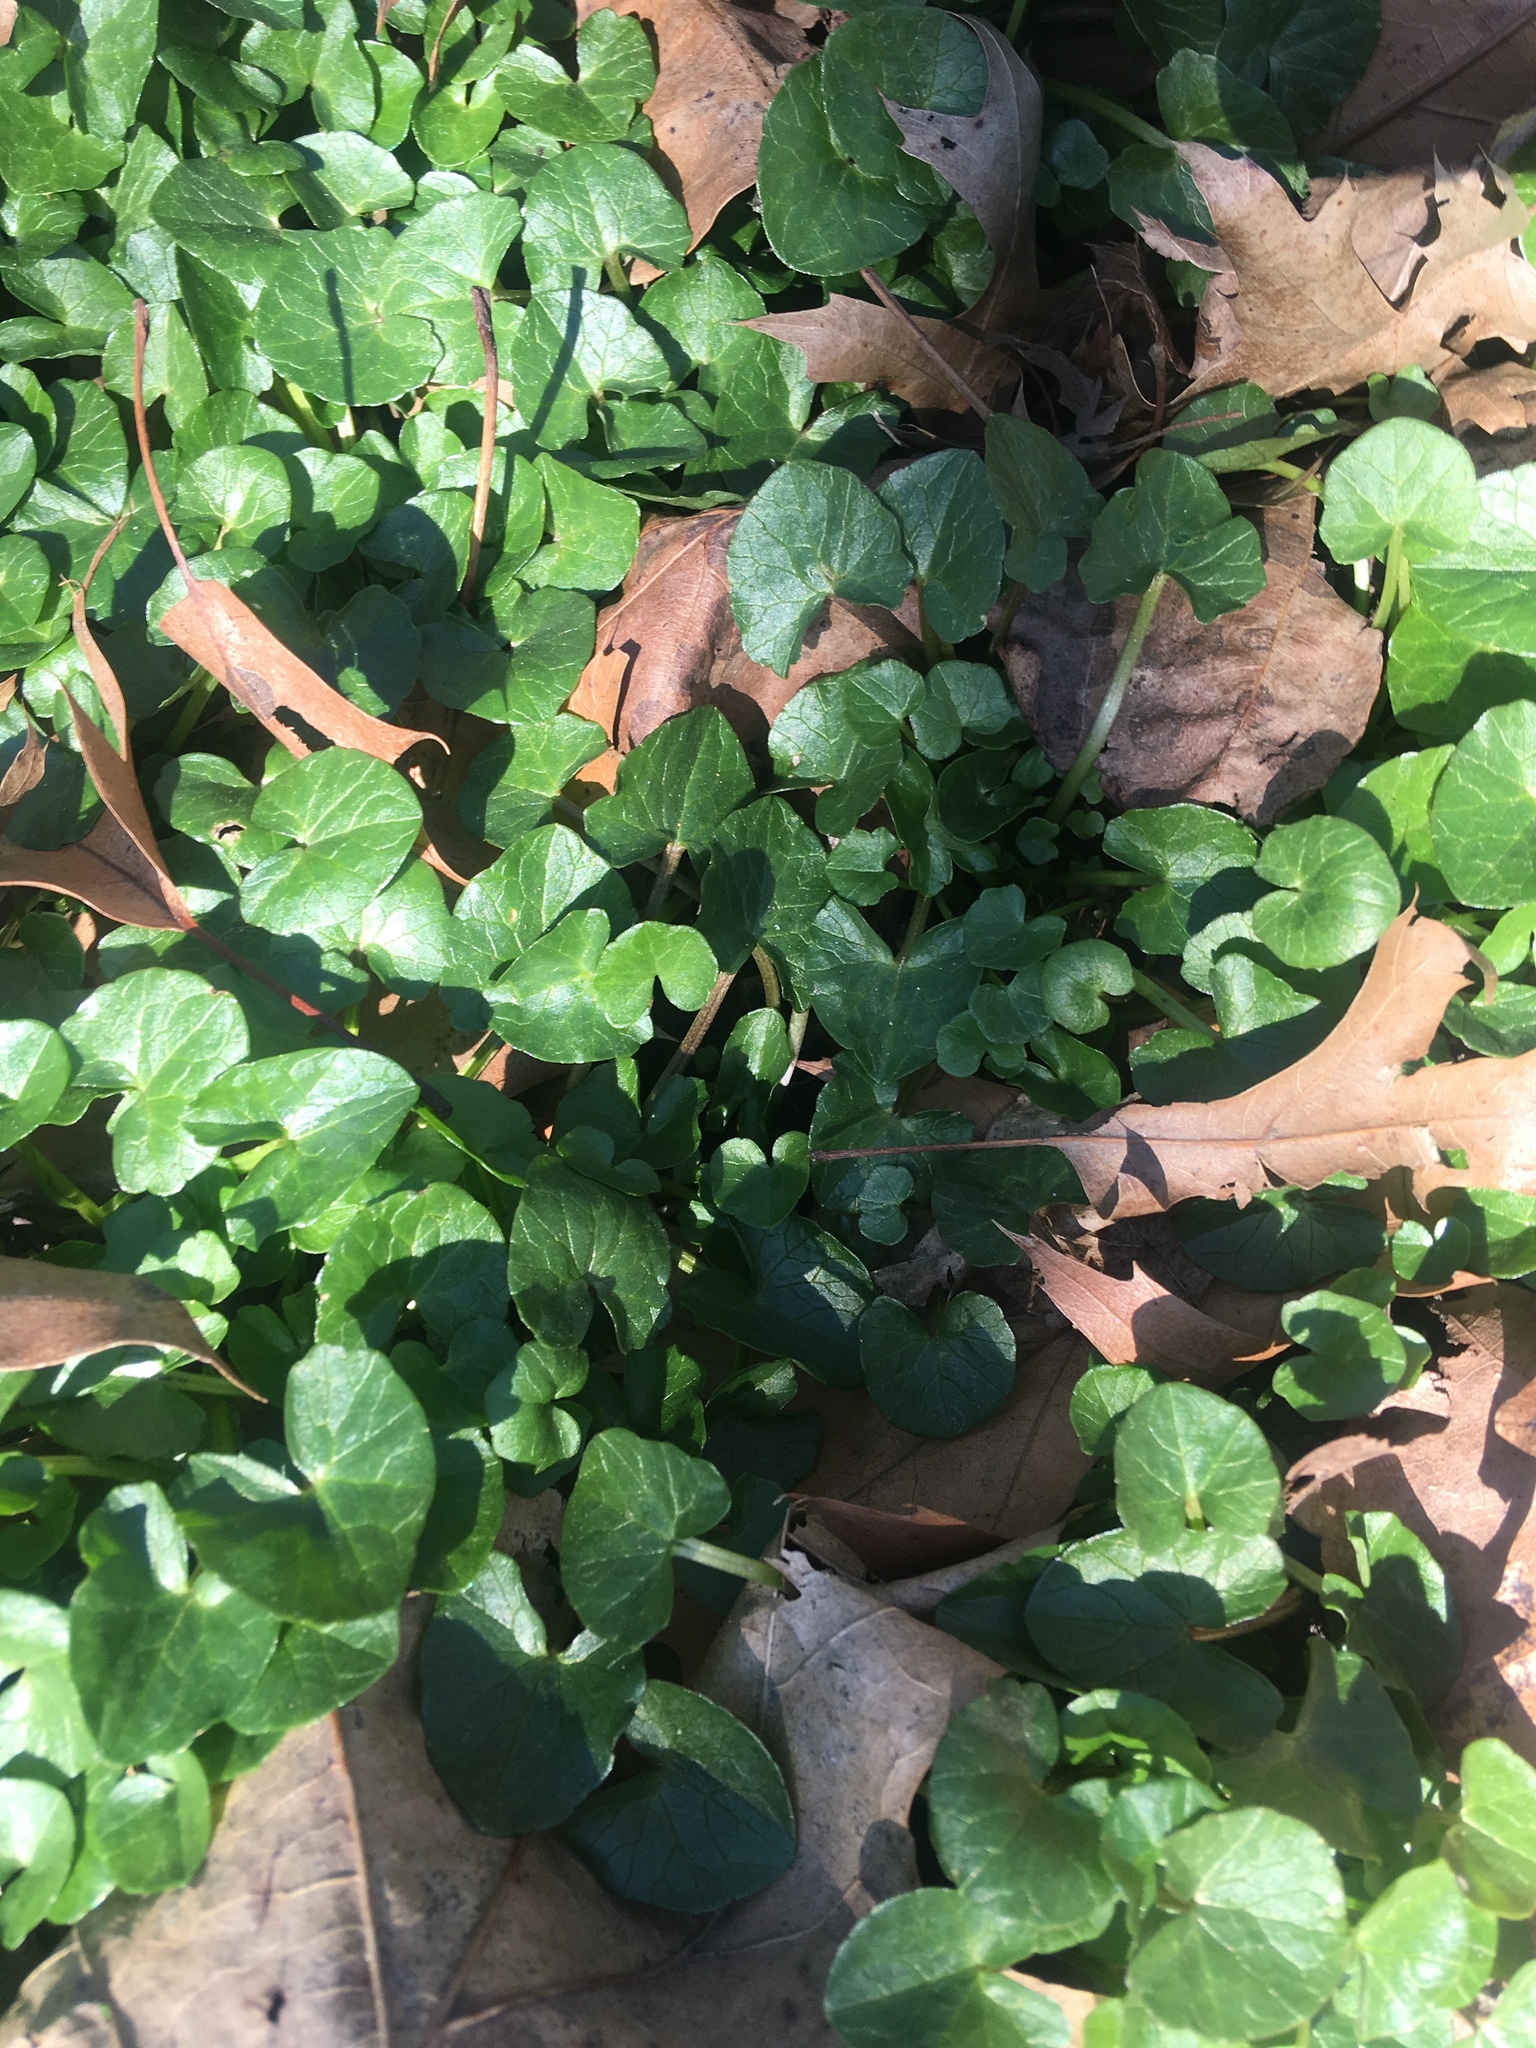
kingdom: Plantae
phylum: Tracheophyta
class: Magnoliopsida
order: Ranunculales
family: Ranunculaceae
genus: Ficaria
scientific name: Ficaria verna
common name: Lesser celandine
